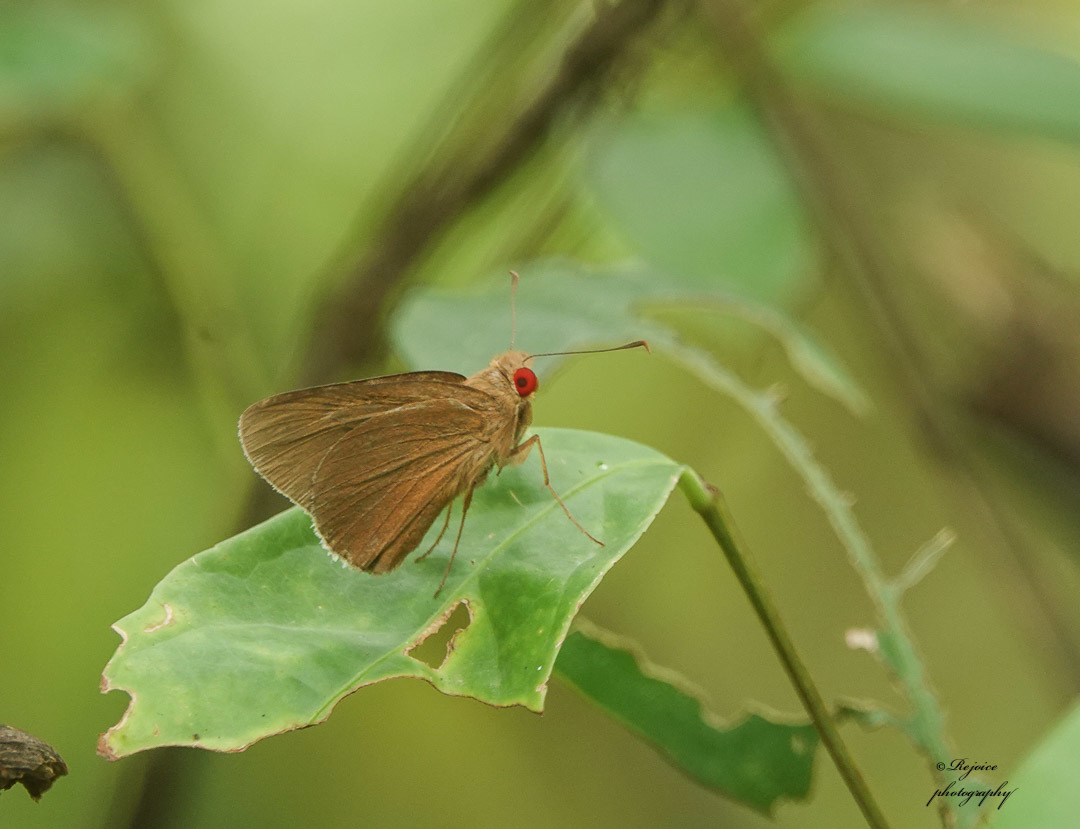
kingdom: Animalia
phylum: Arthropoda
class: Insecta
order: Lepidoptera
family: Hesperiidae
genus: Matapa
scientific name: Matapa aria
